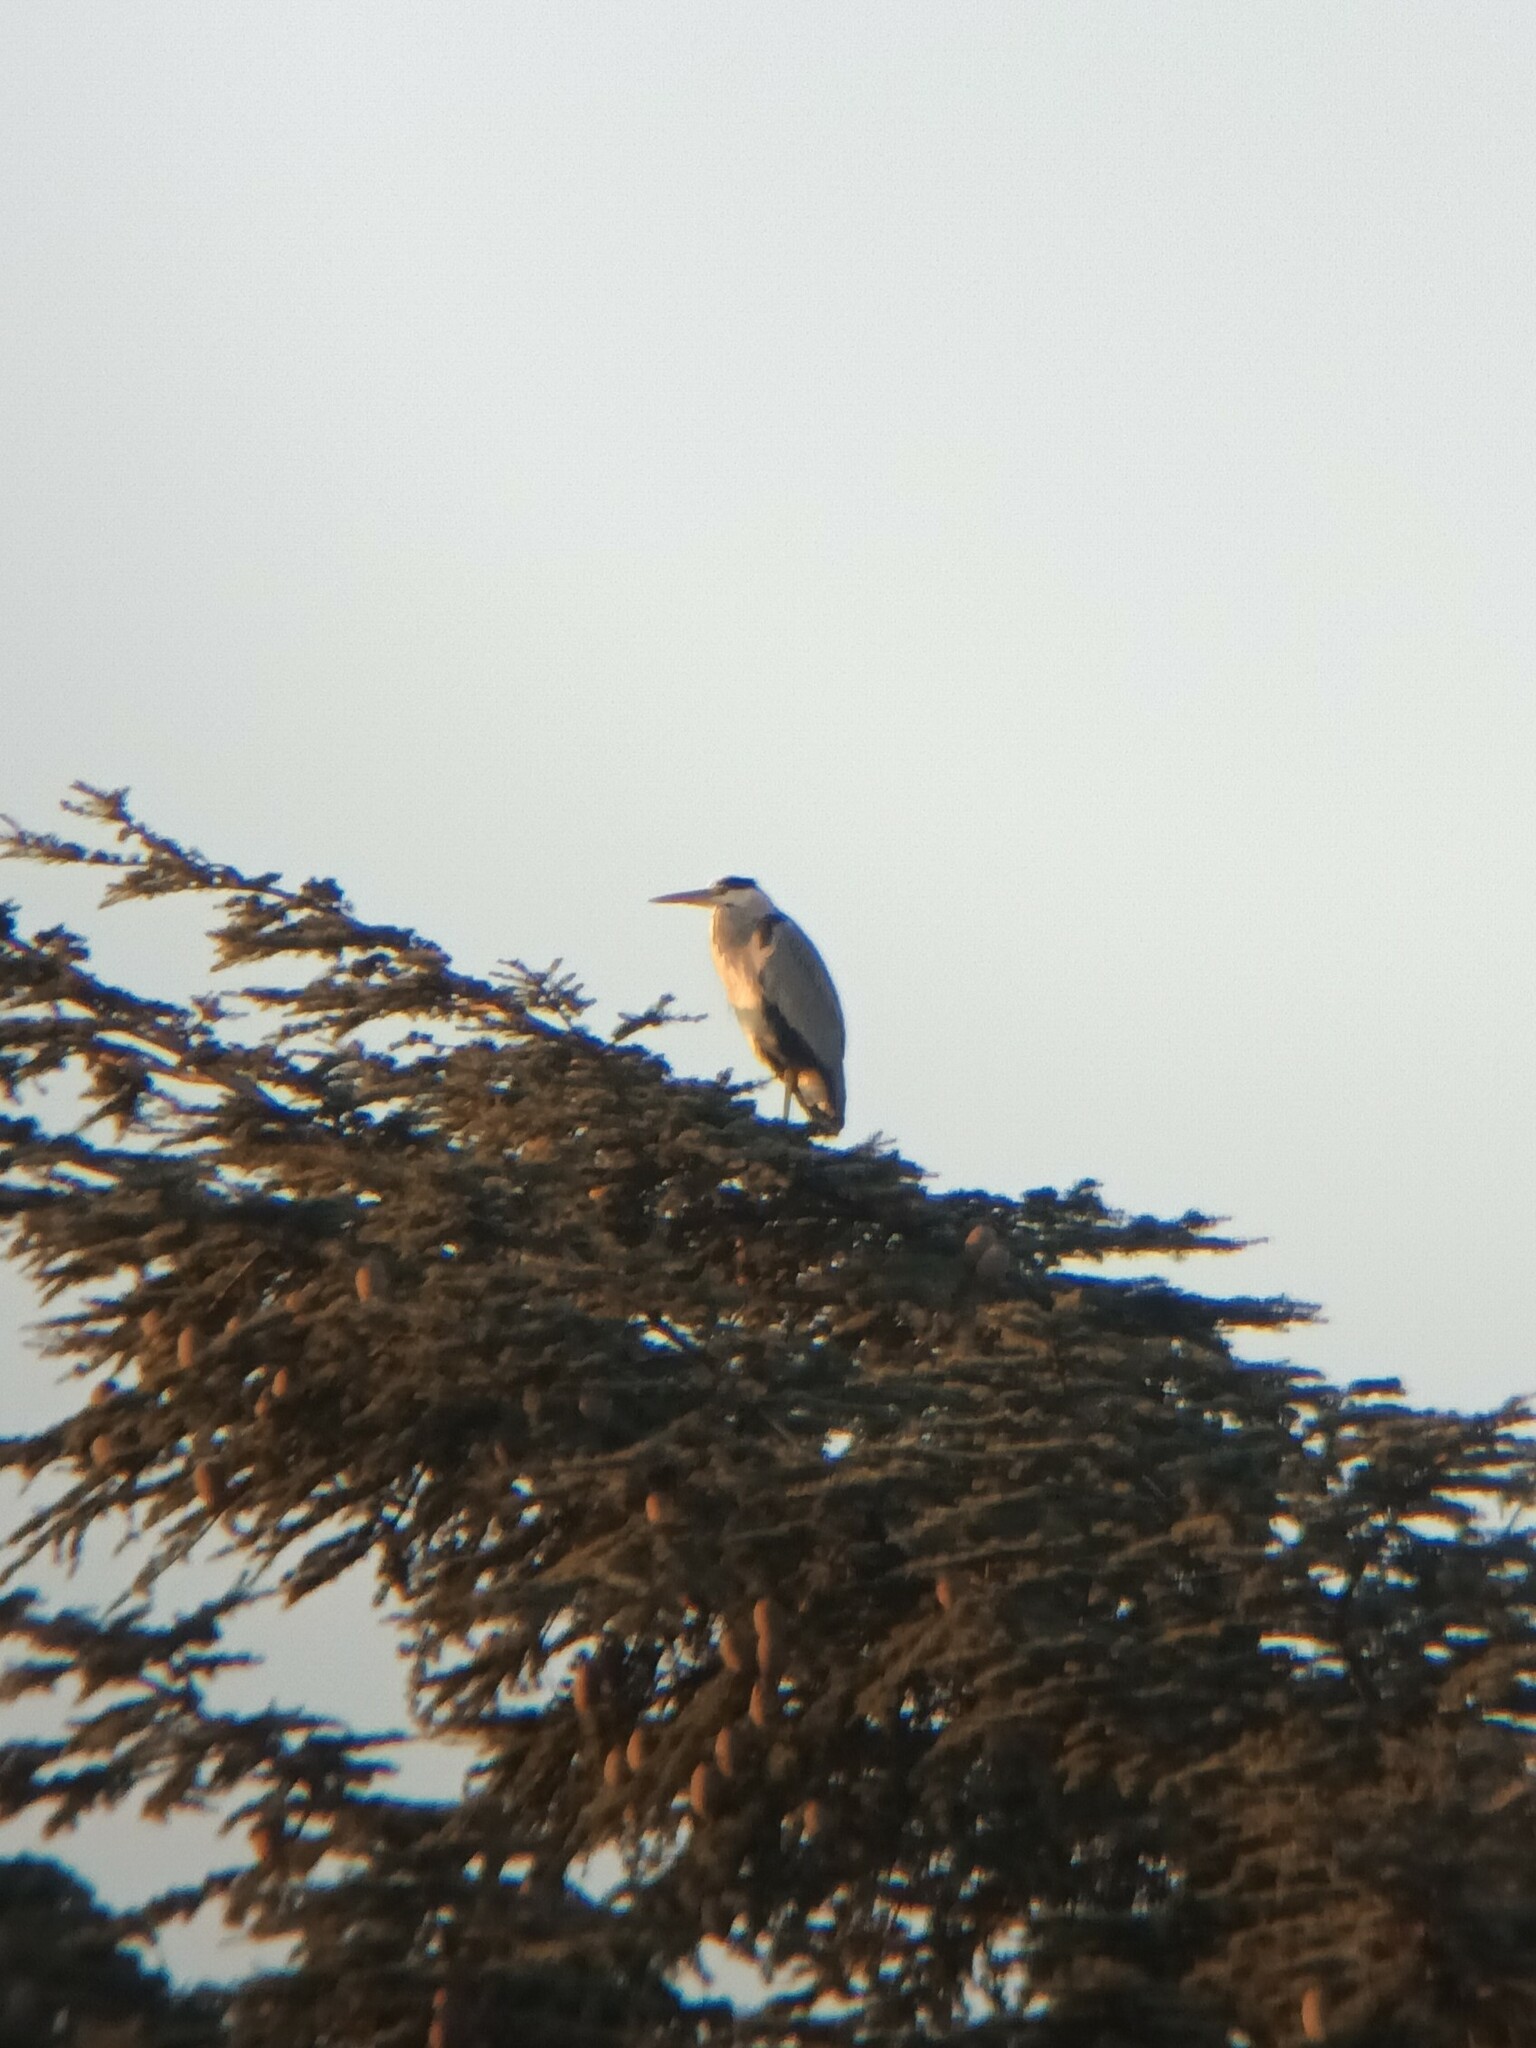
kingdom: Animalia
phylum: Chordata
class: Aves
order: Pelecaniformes
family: Ardeidae
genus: Ardea
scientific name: Ardea cinerea
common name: Grey heron
